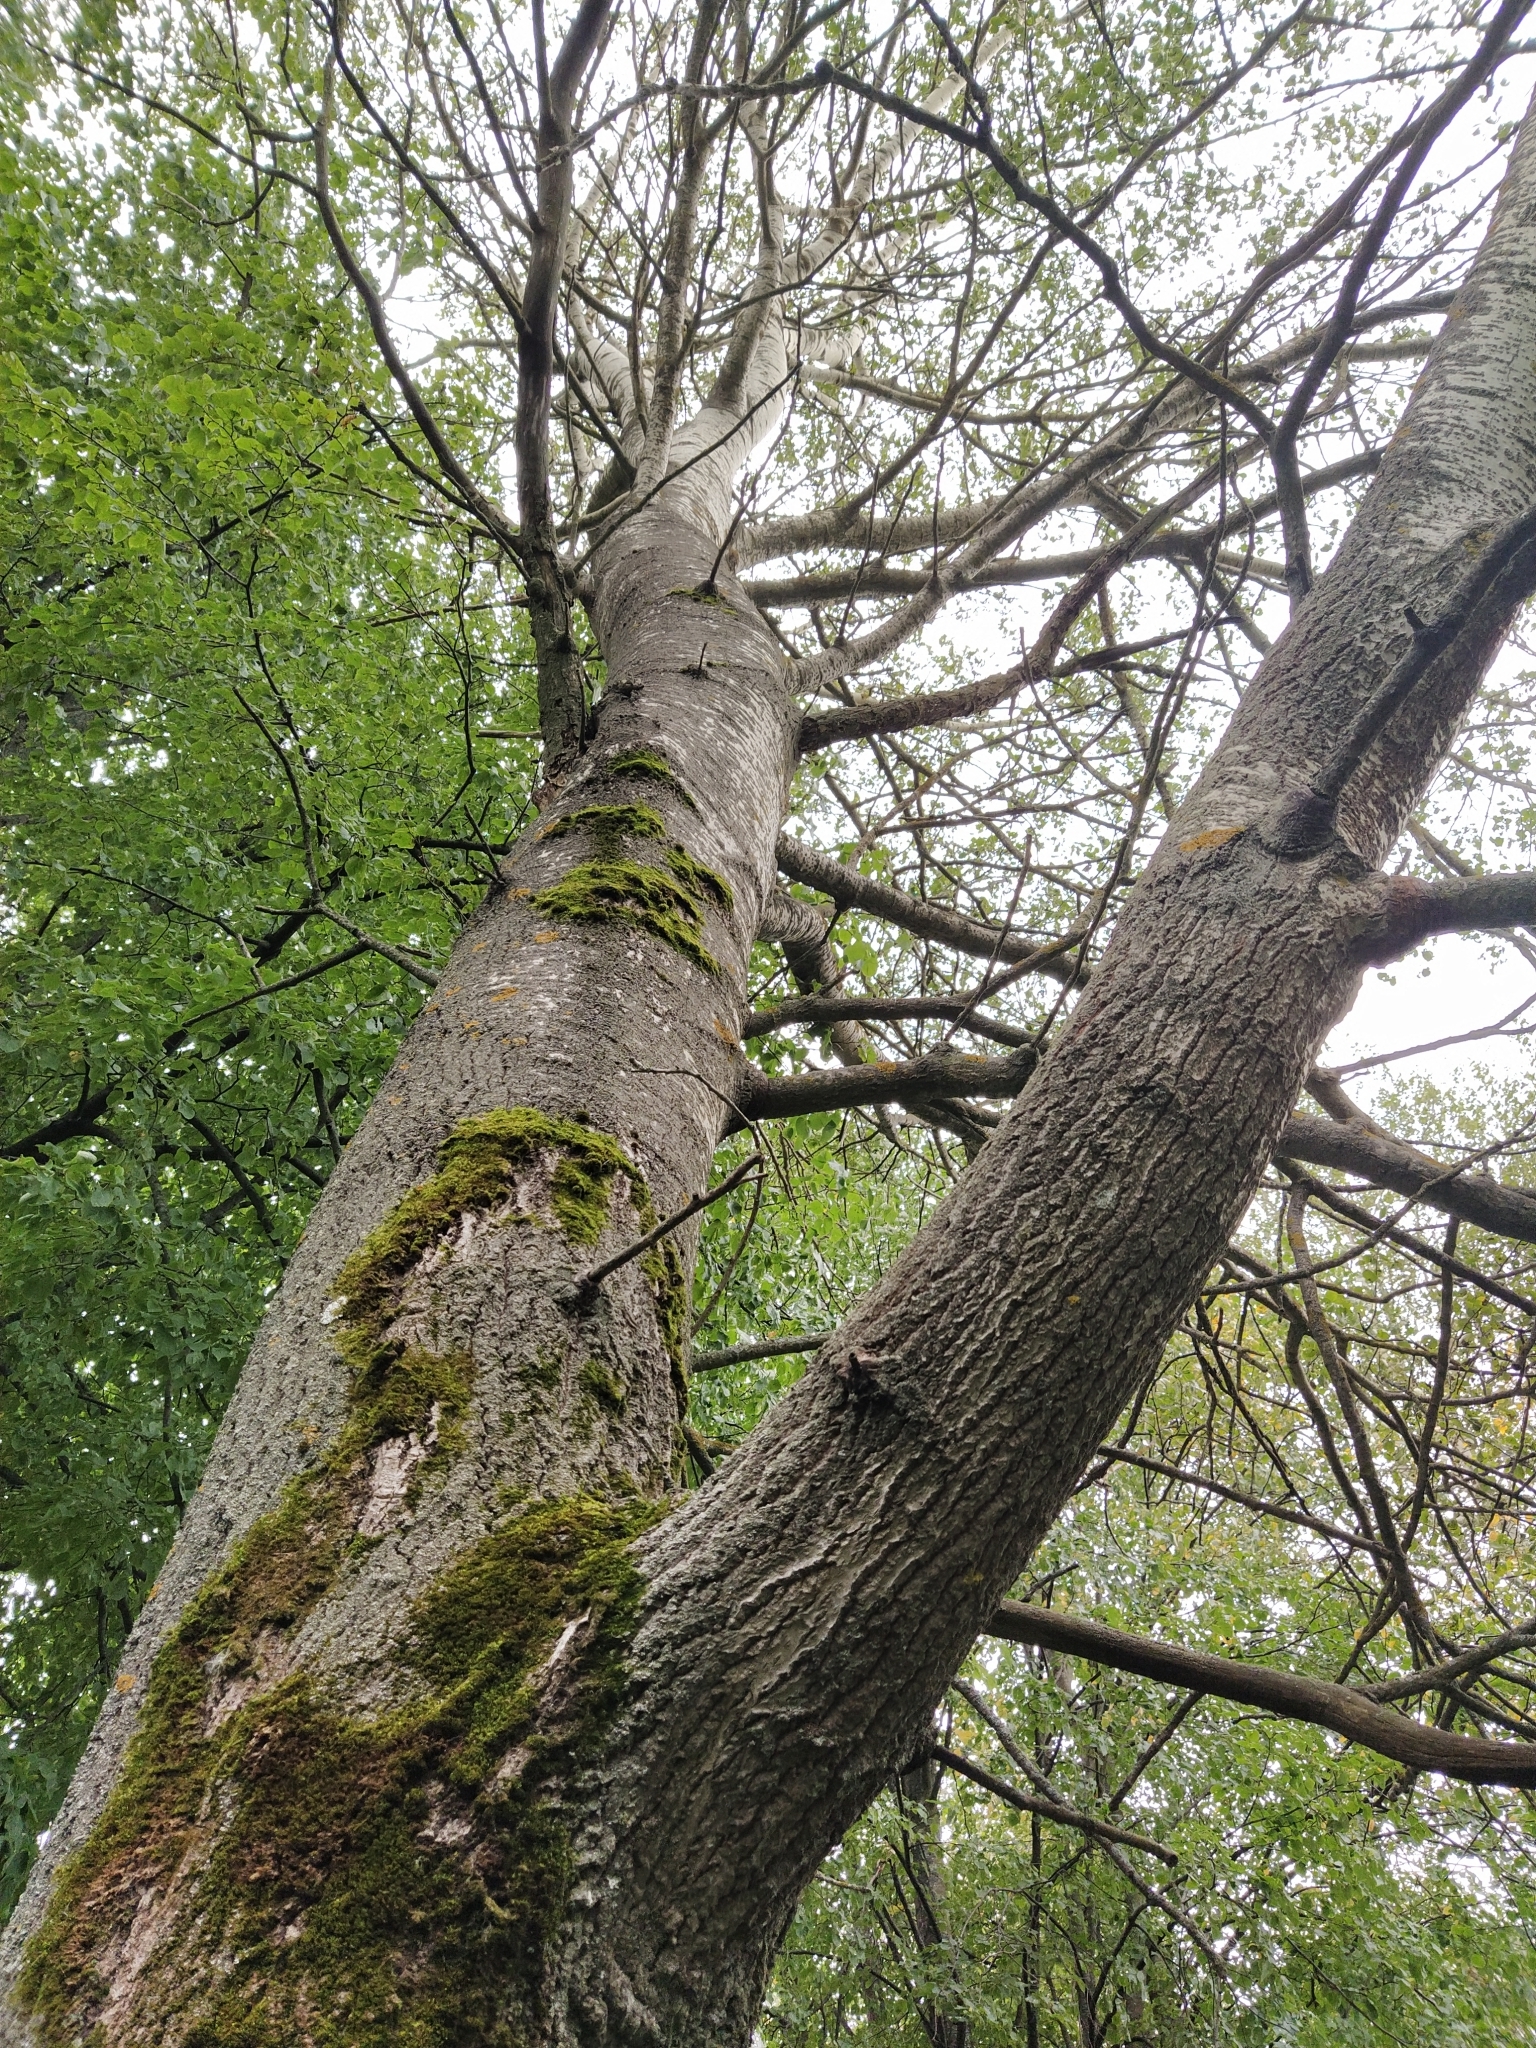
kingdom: Plantae
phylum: Tracheophyta
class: Magnoliopsida
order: Malpighiales
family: Salicaceae
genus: Populus
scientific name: Populus tremula
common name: European aspen
